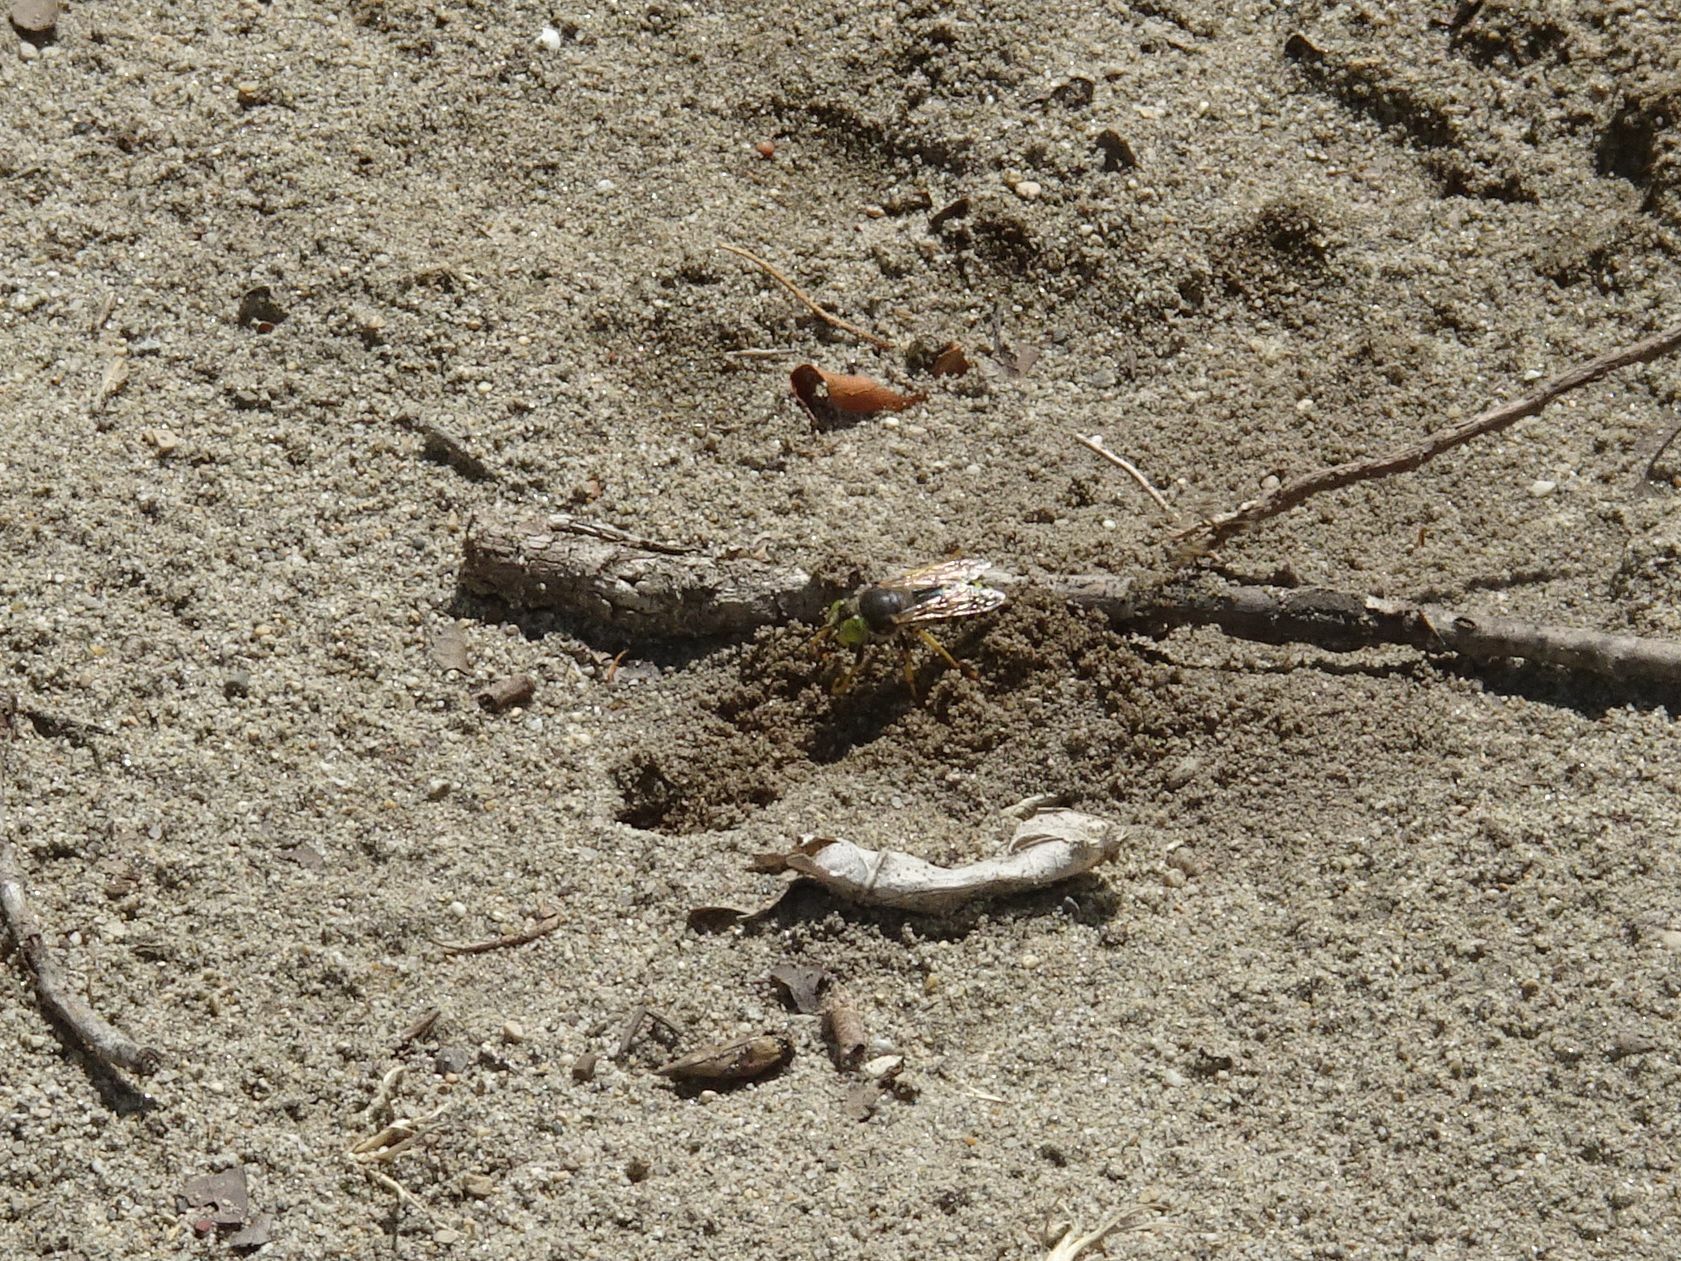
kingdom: Animalia
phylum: Arthropoda
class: Insecta
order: Hymenoptera
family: Crabronidae
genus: Bembix
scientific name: Bembix rostrata
